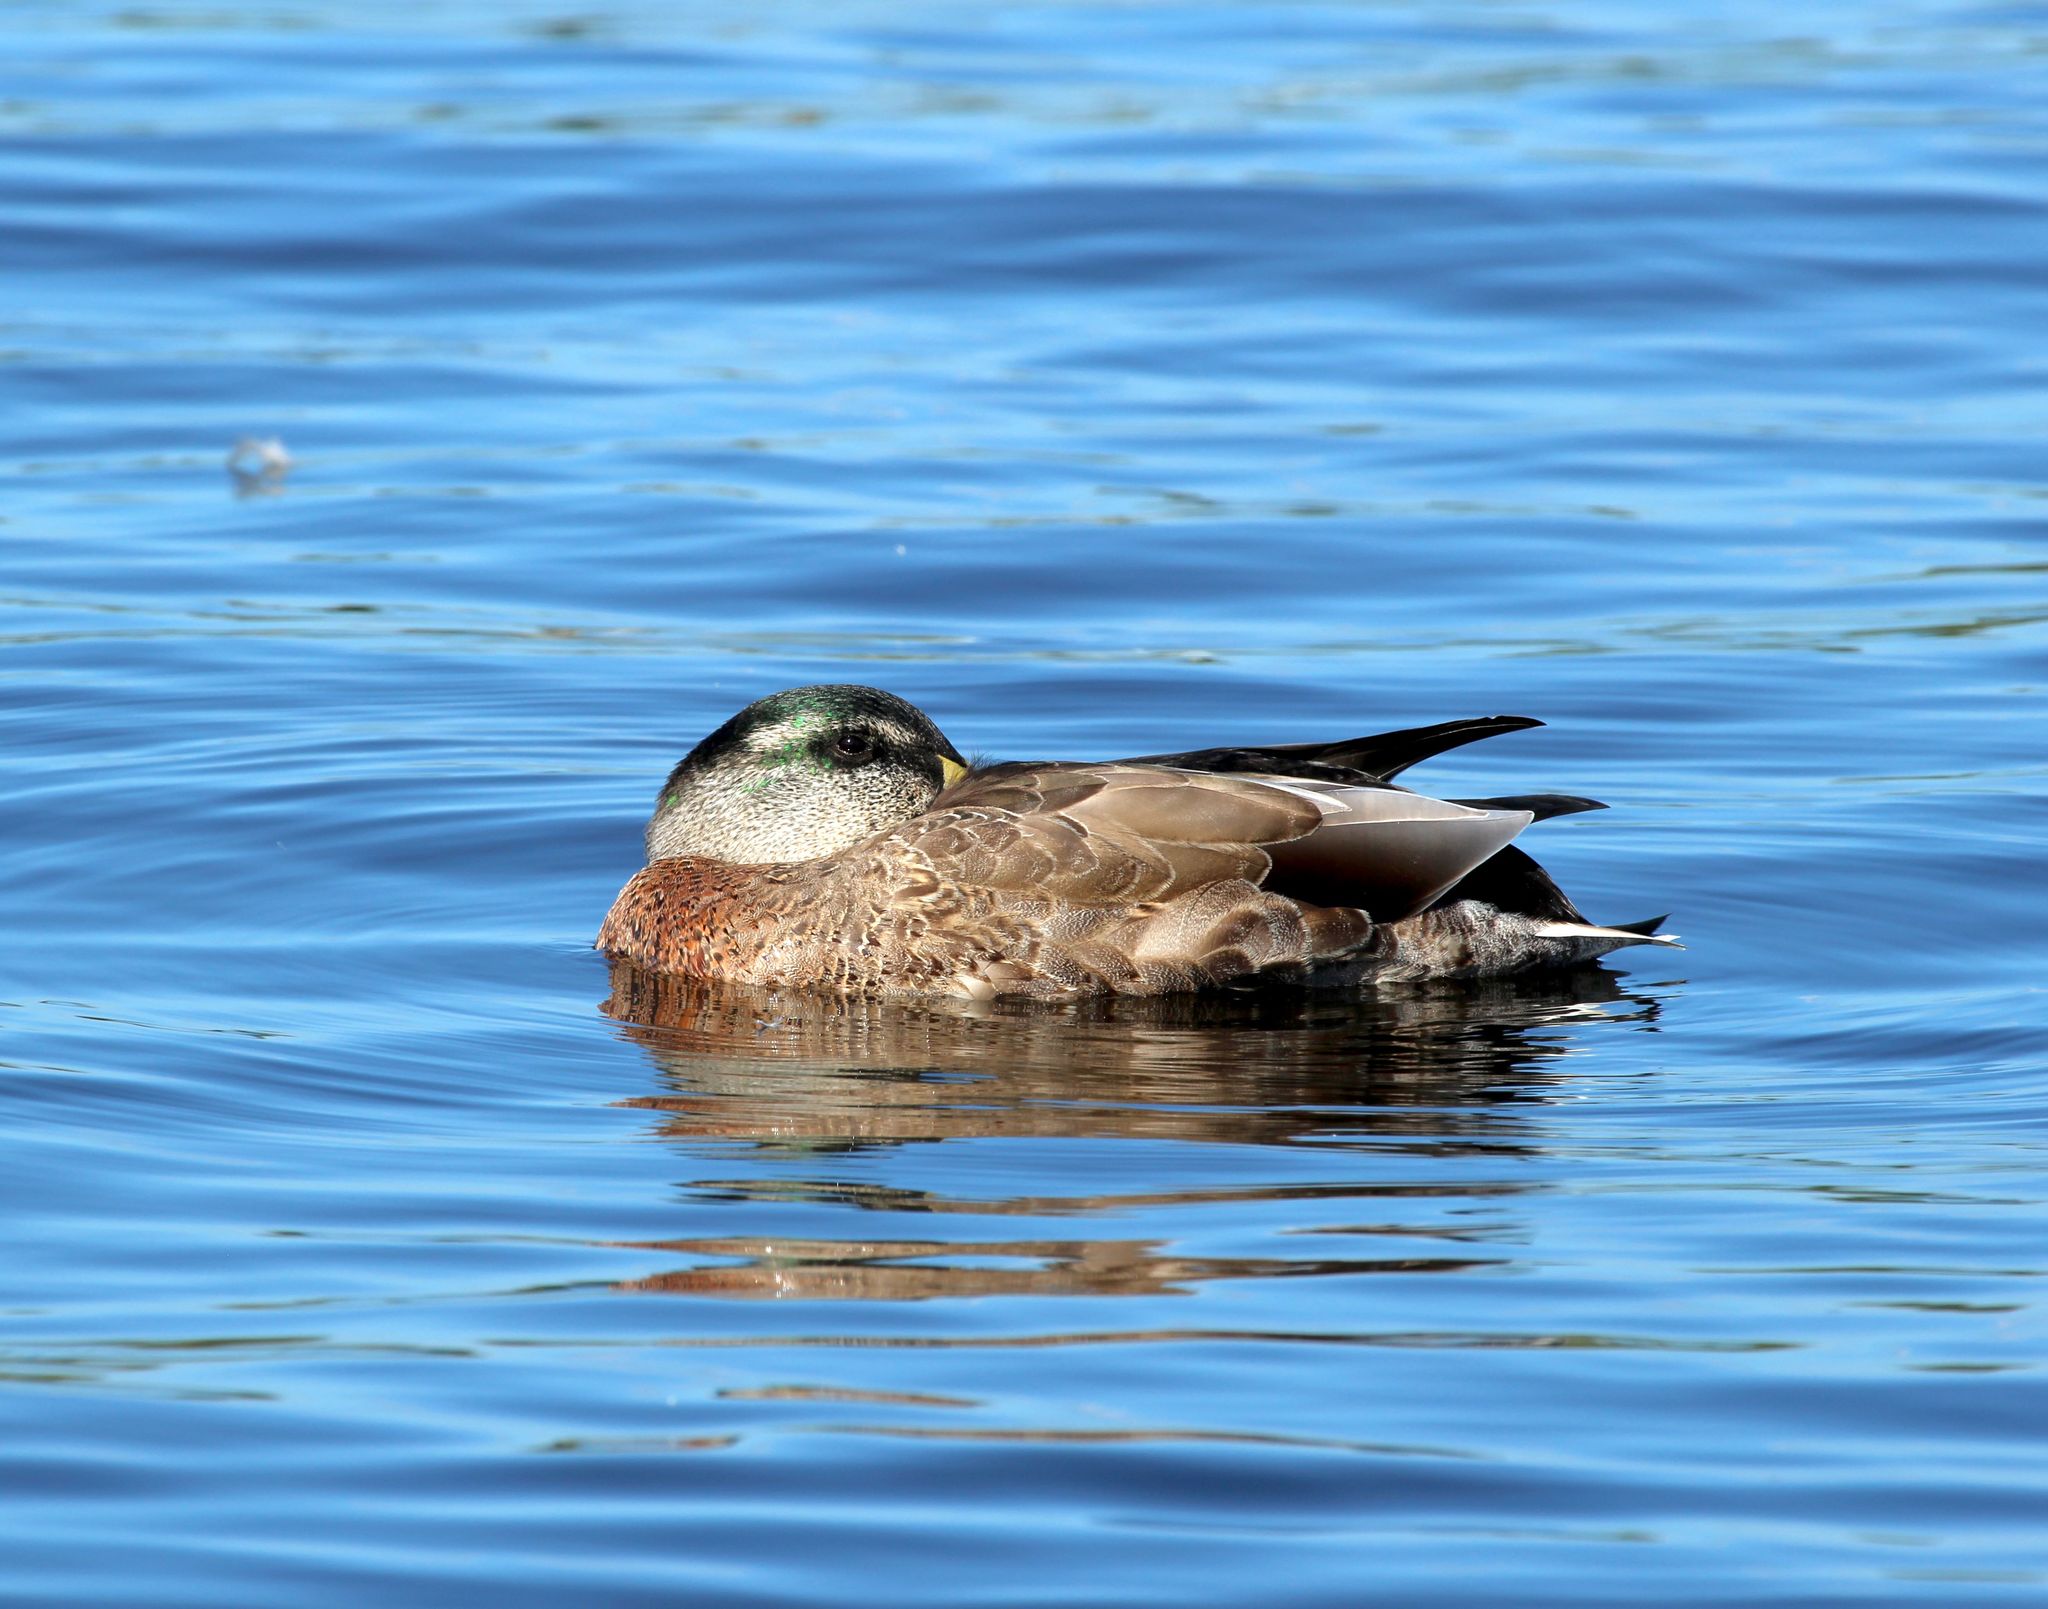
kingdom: Animalia
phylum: Chordata
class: Aves
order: Anseriformes
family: Anatidae
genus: Anas
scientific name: Anas
